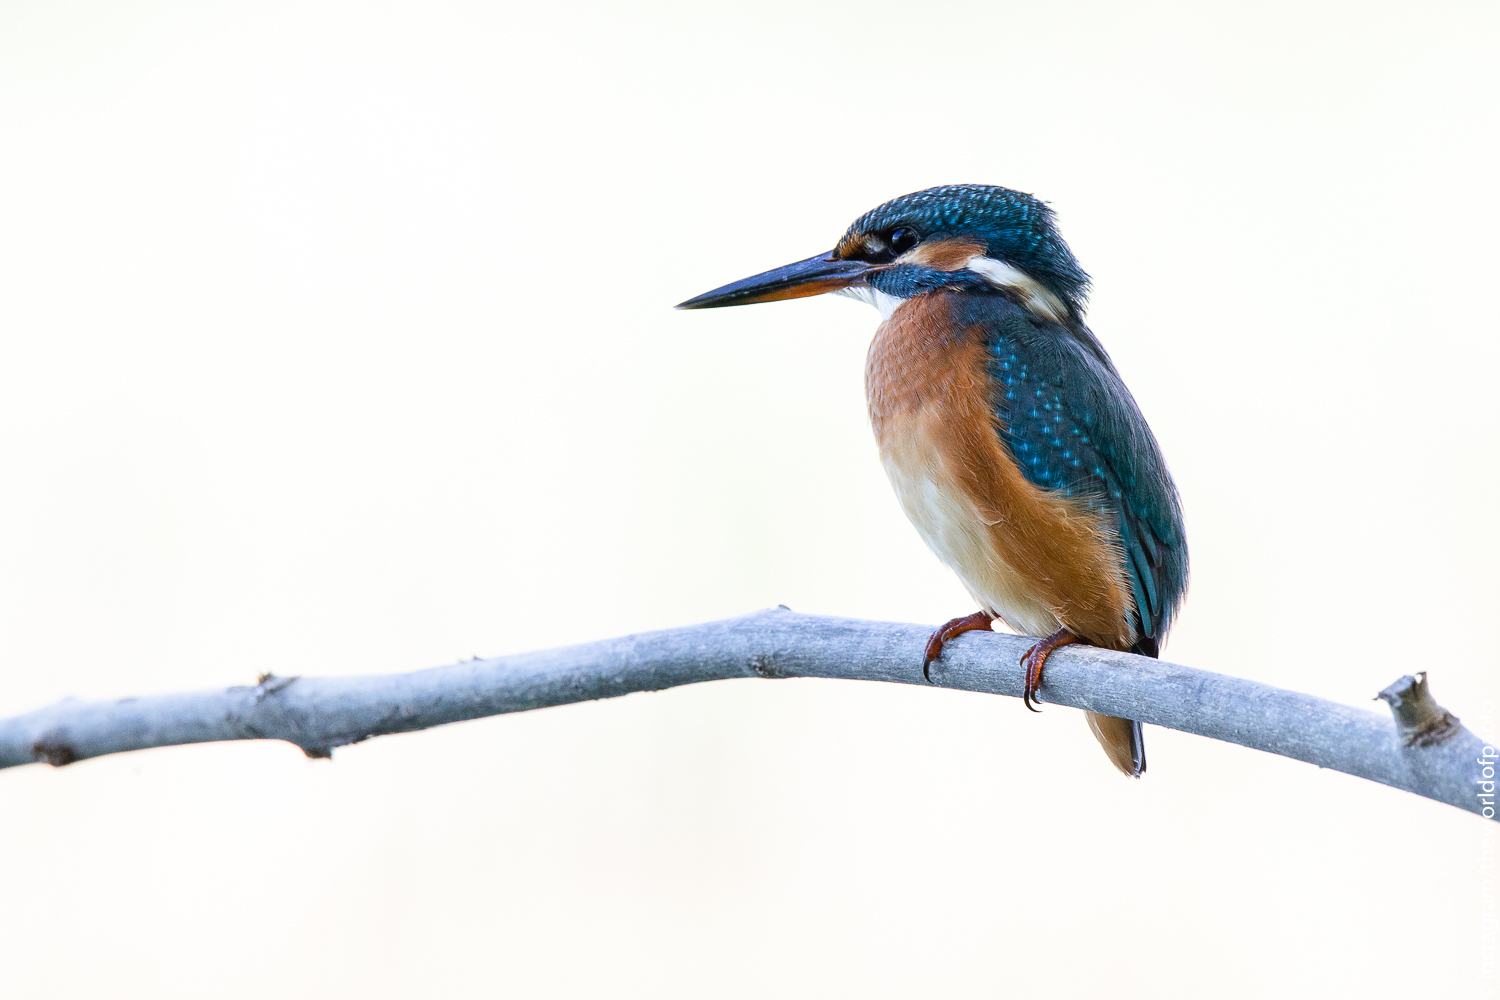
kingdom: Animalia
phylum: Chordata
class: Aves
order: Coraciiformes
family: Alcedinidae
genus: Alcedo
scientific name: Alcedo atthis
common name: Common kingfisher
